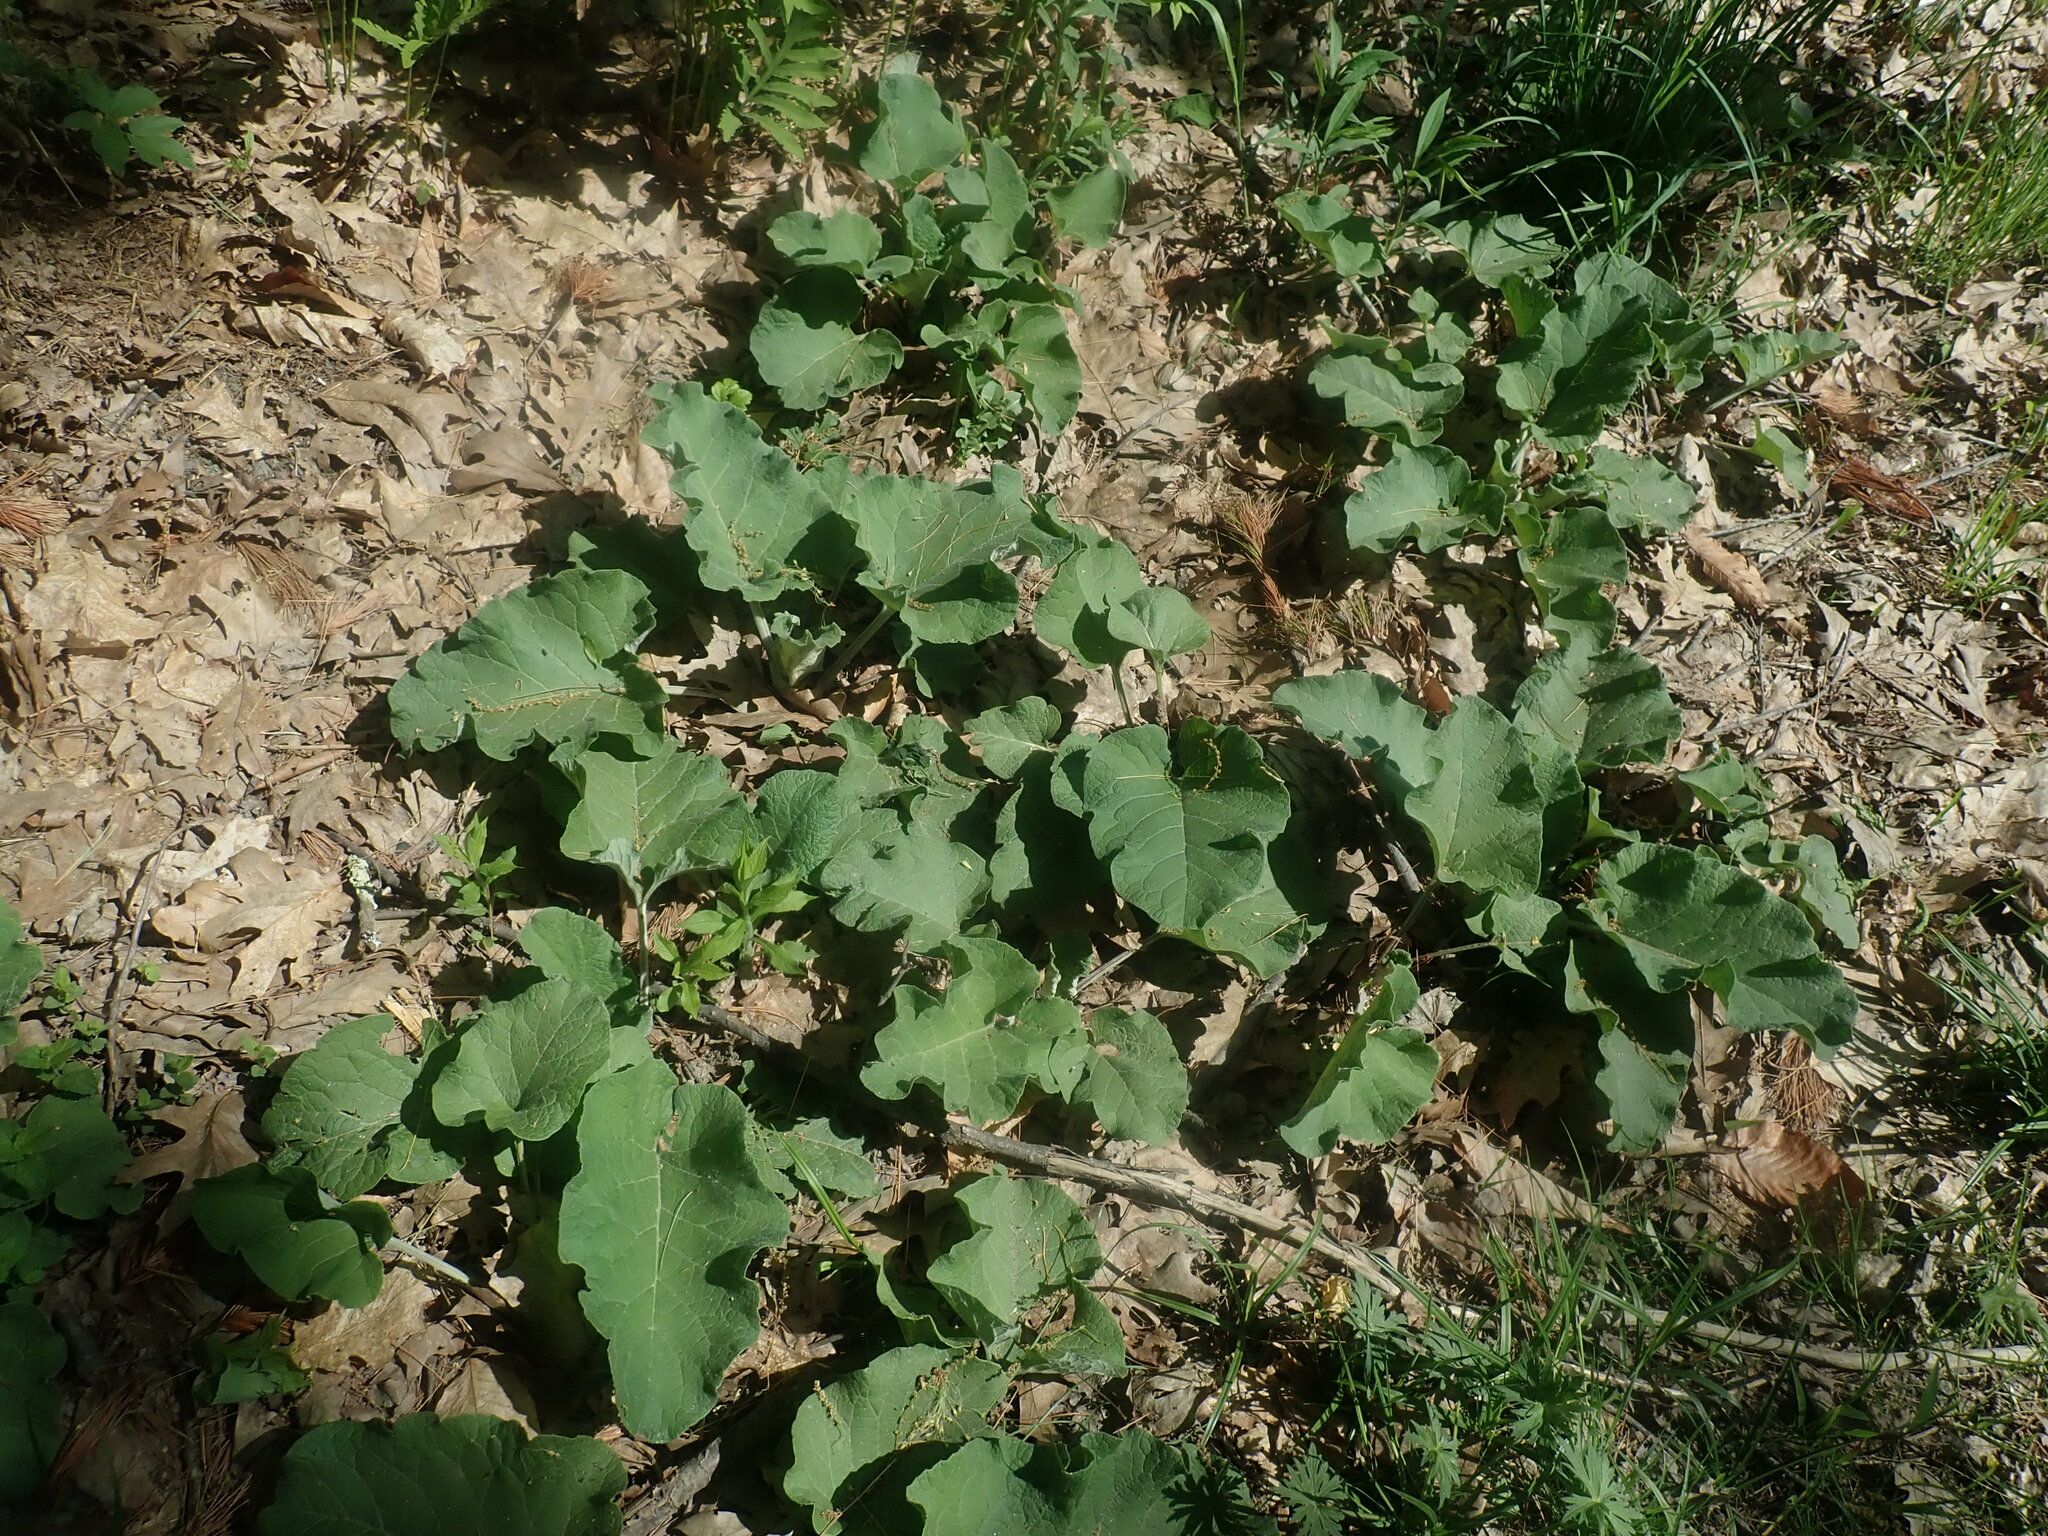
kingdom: Plantae
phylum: Tracheophyta
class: Magnoliopsida
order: Asterales
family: Asteraceae
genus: Arctium
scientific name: Arctium
